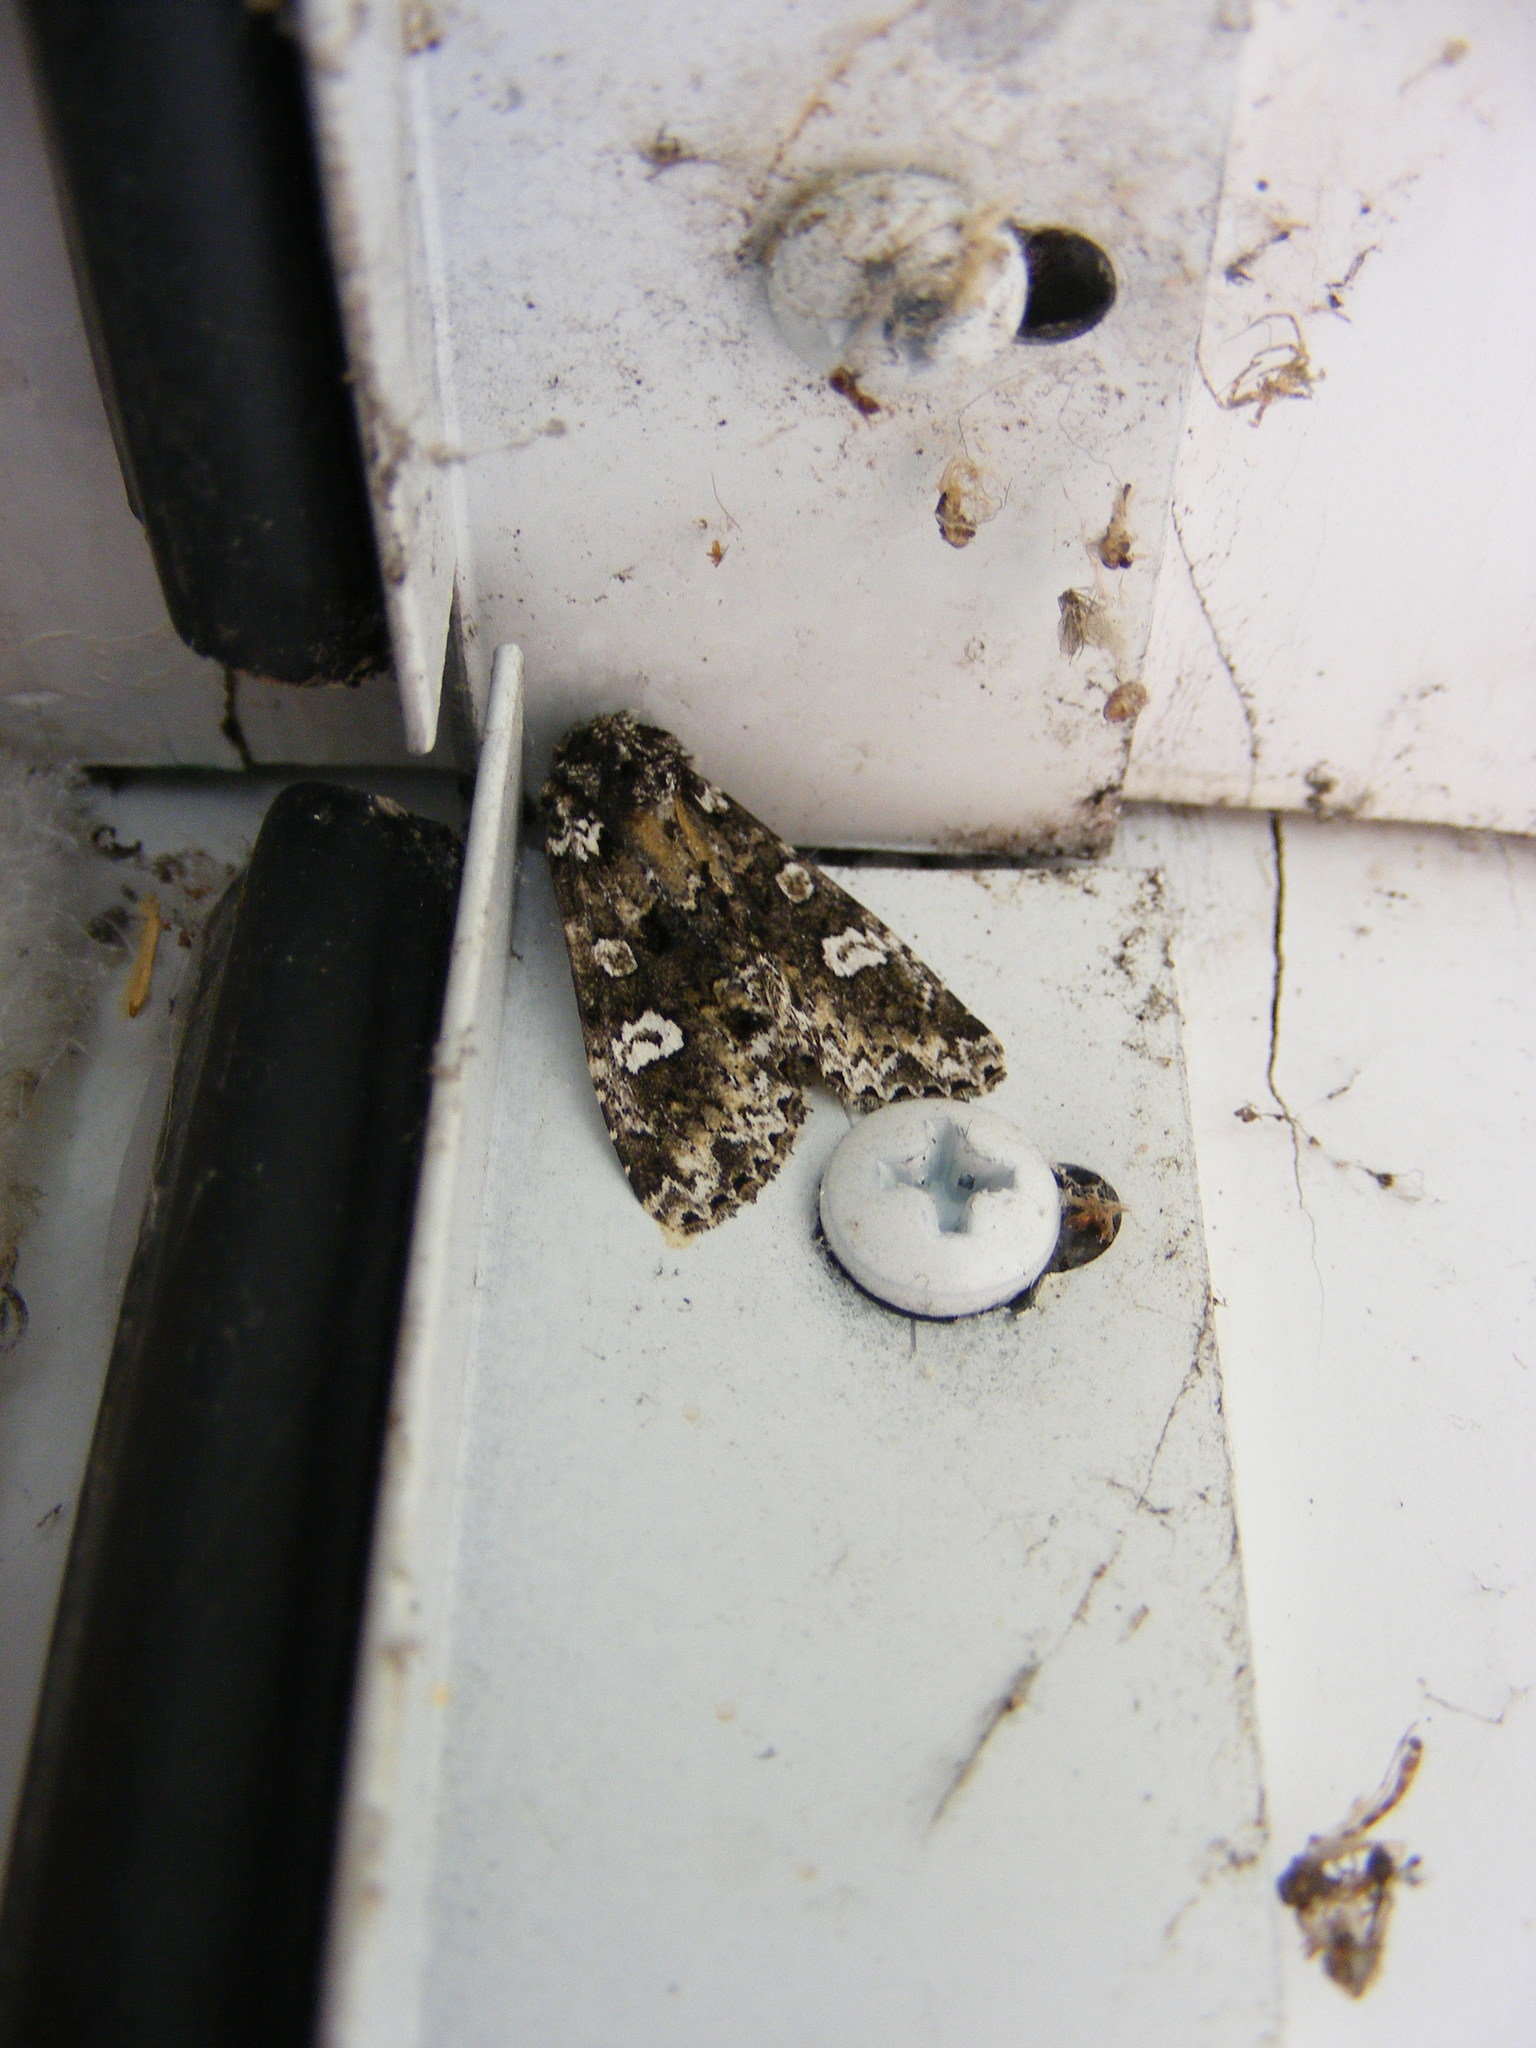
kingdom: Animalia
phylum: Arthropoda
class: Insecta
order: Lepidoptera
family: Noctuidae
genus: Melanchra
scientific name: Melanchra adjuncta
